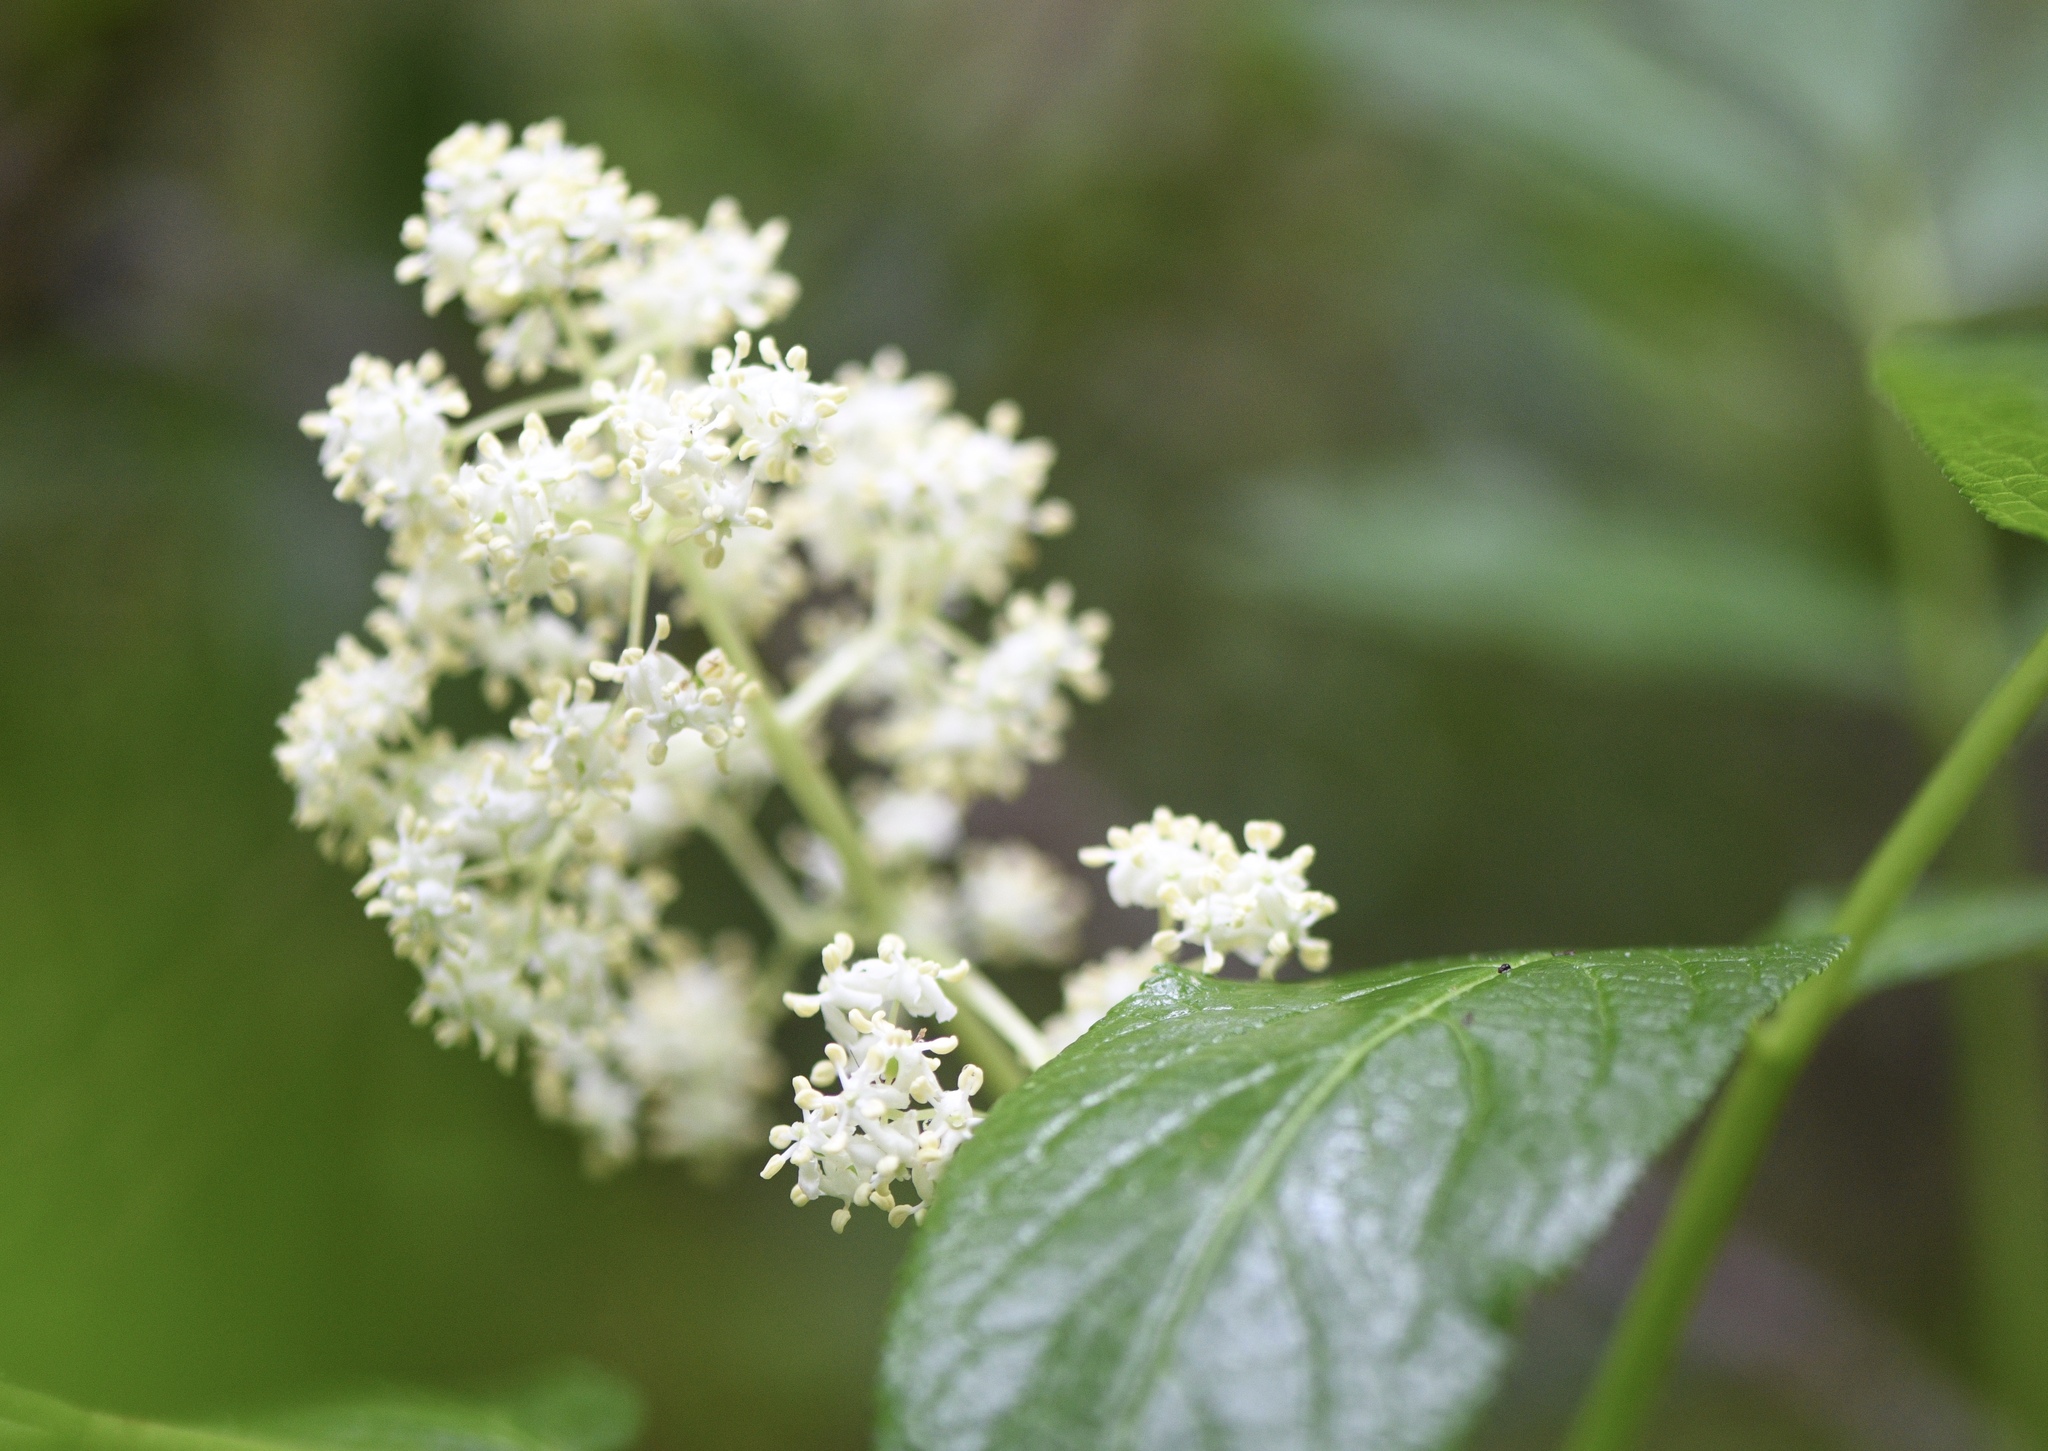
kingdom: Plantae
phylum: Tracheophyta
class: Magnoliopsida
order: Dipsacales
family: Viburnaceae
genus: Sambucus
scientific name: Sambucus racemosa
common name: Red-berried elder
